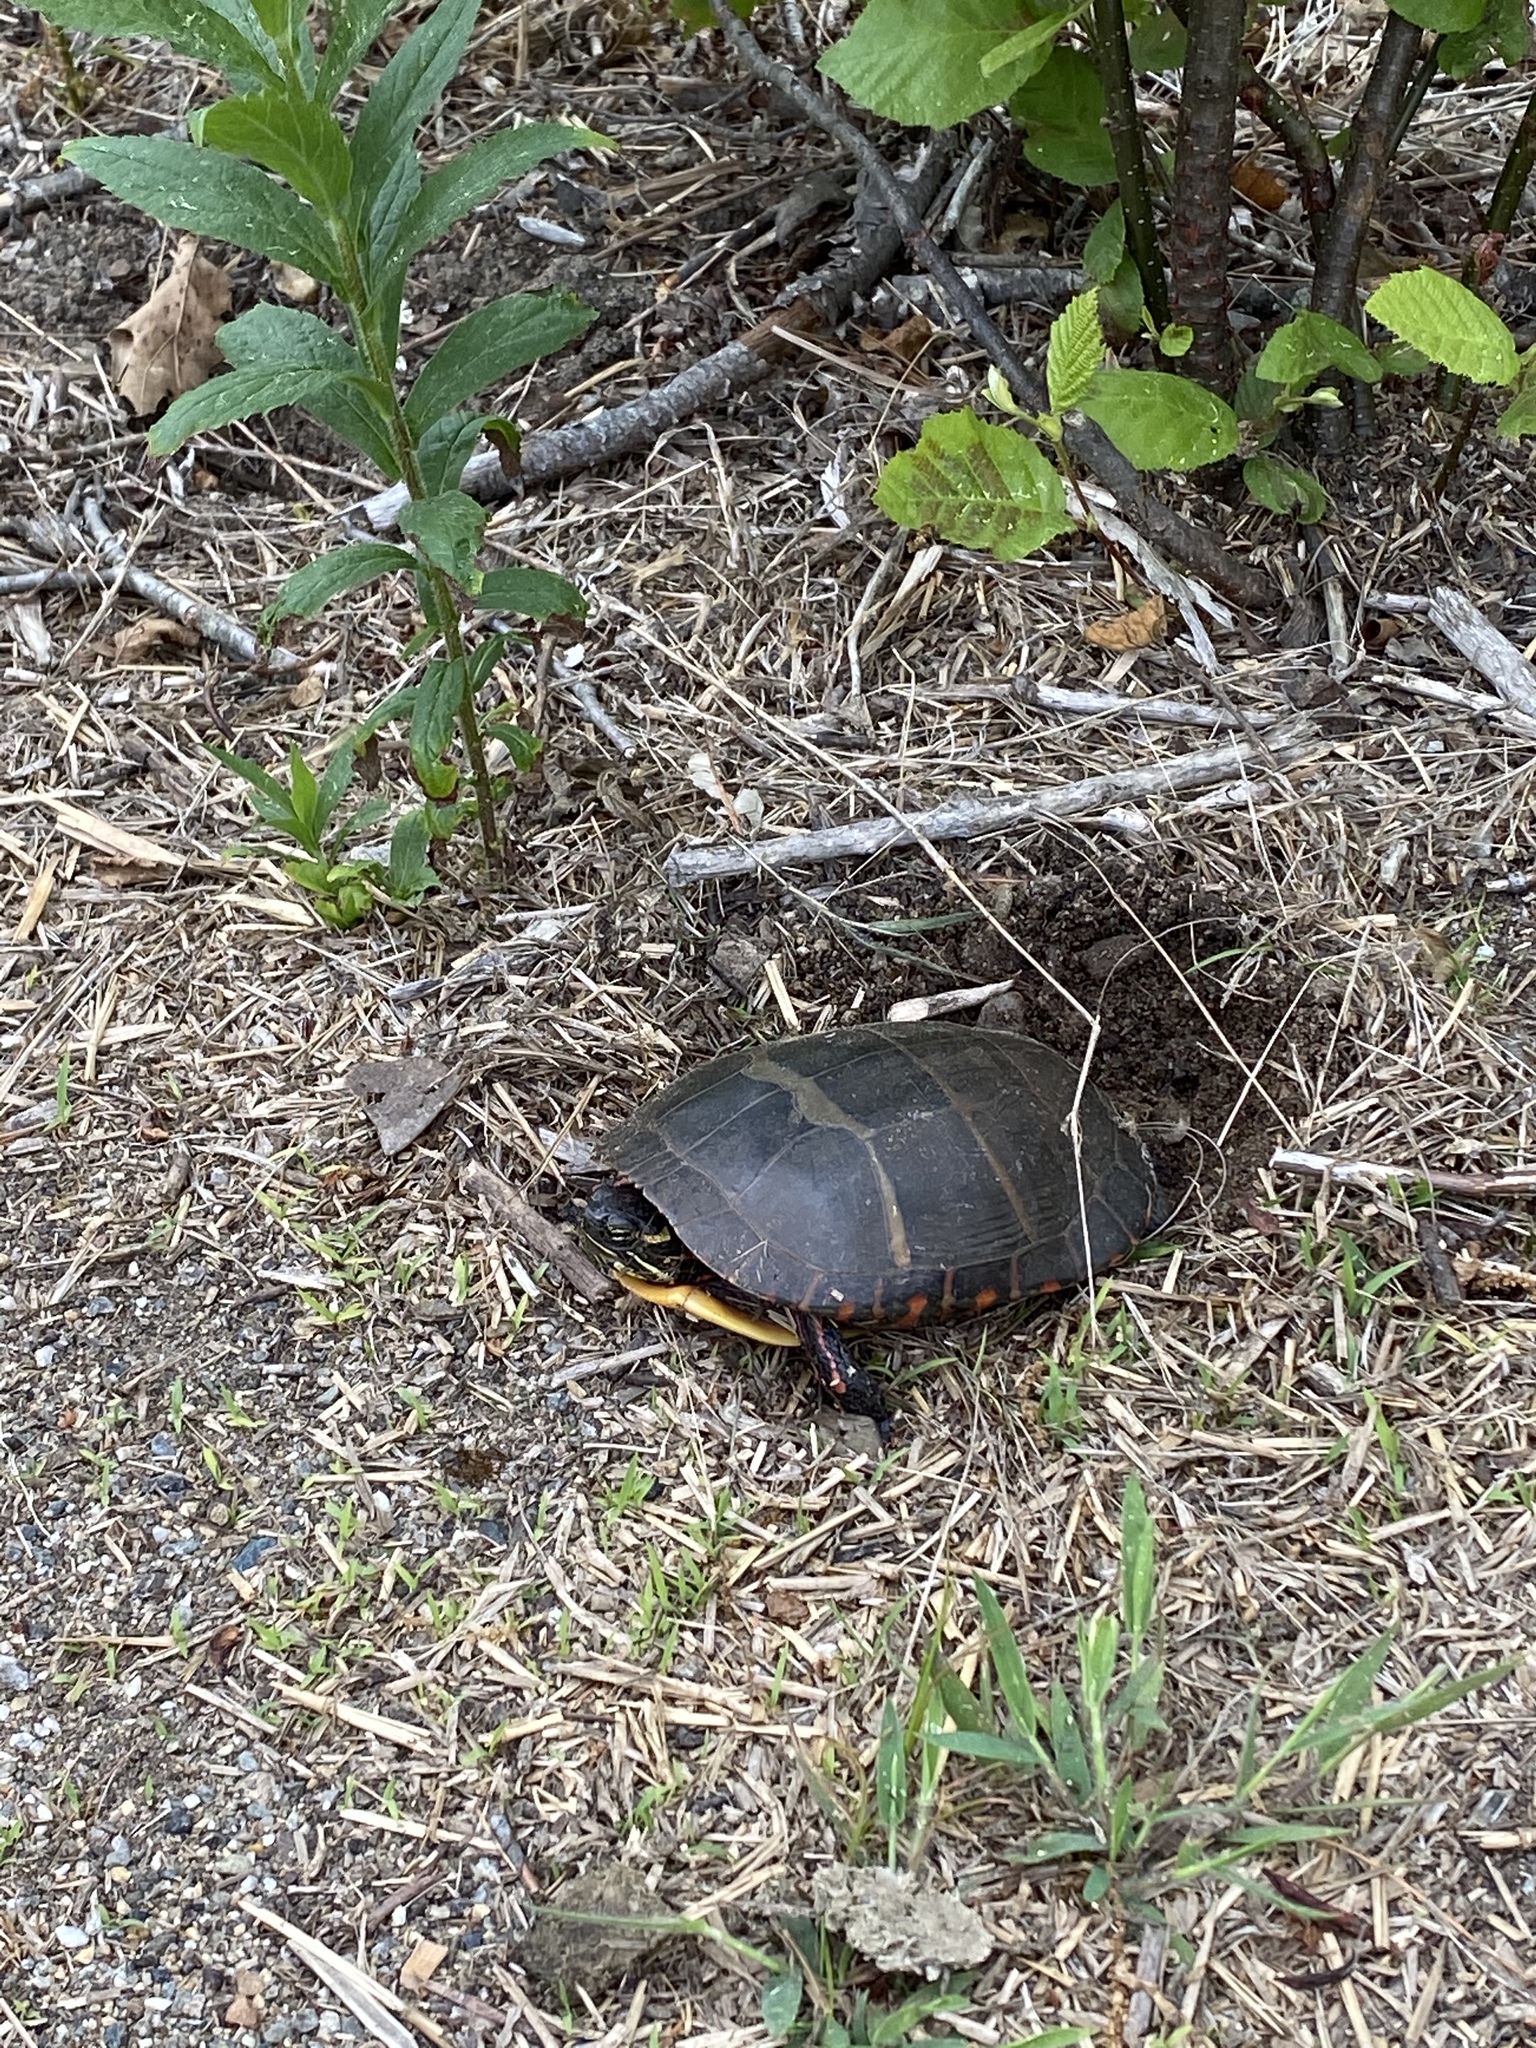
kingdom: Animalia
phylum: Chordata
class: Testudines
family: Emydidae
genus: Chrysemys
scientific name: Chrysemys picta
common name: Painted turtle
